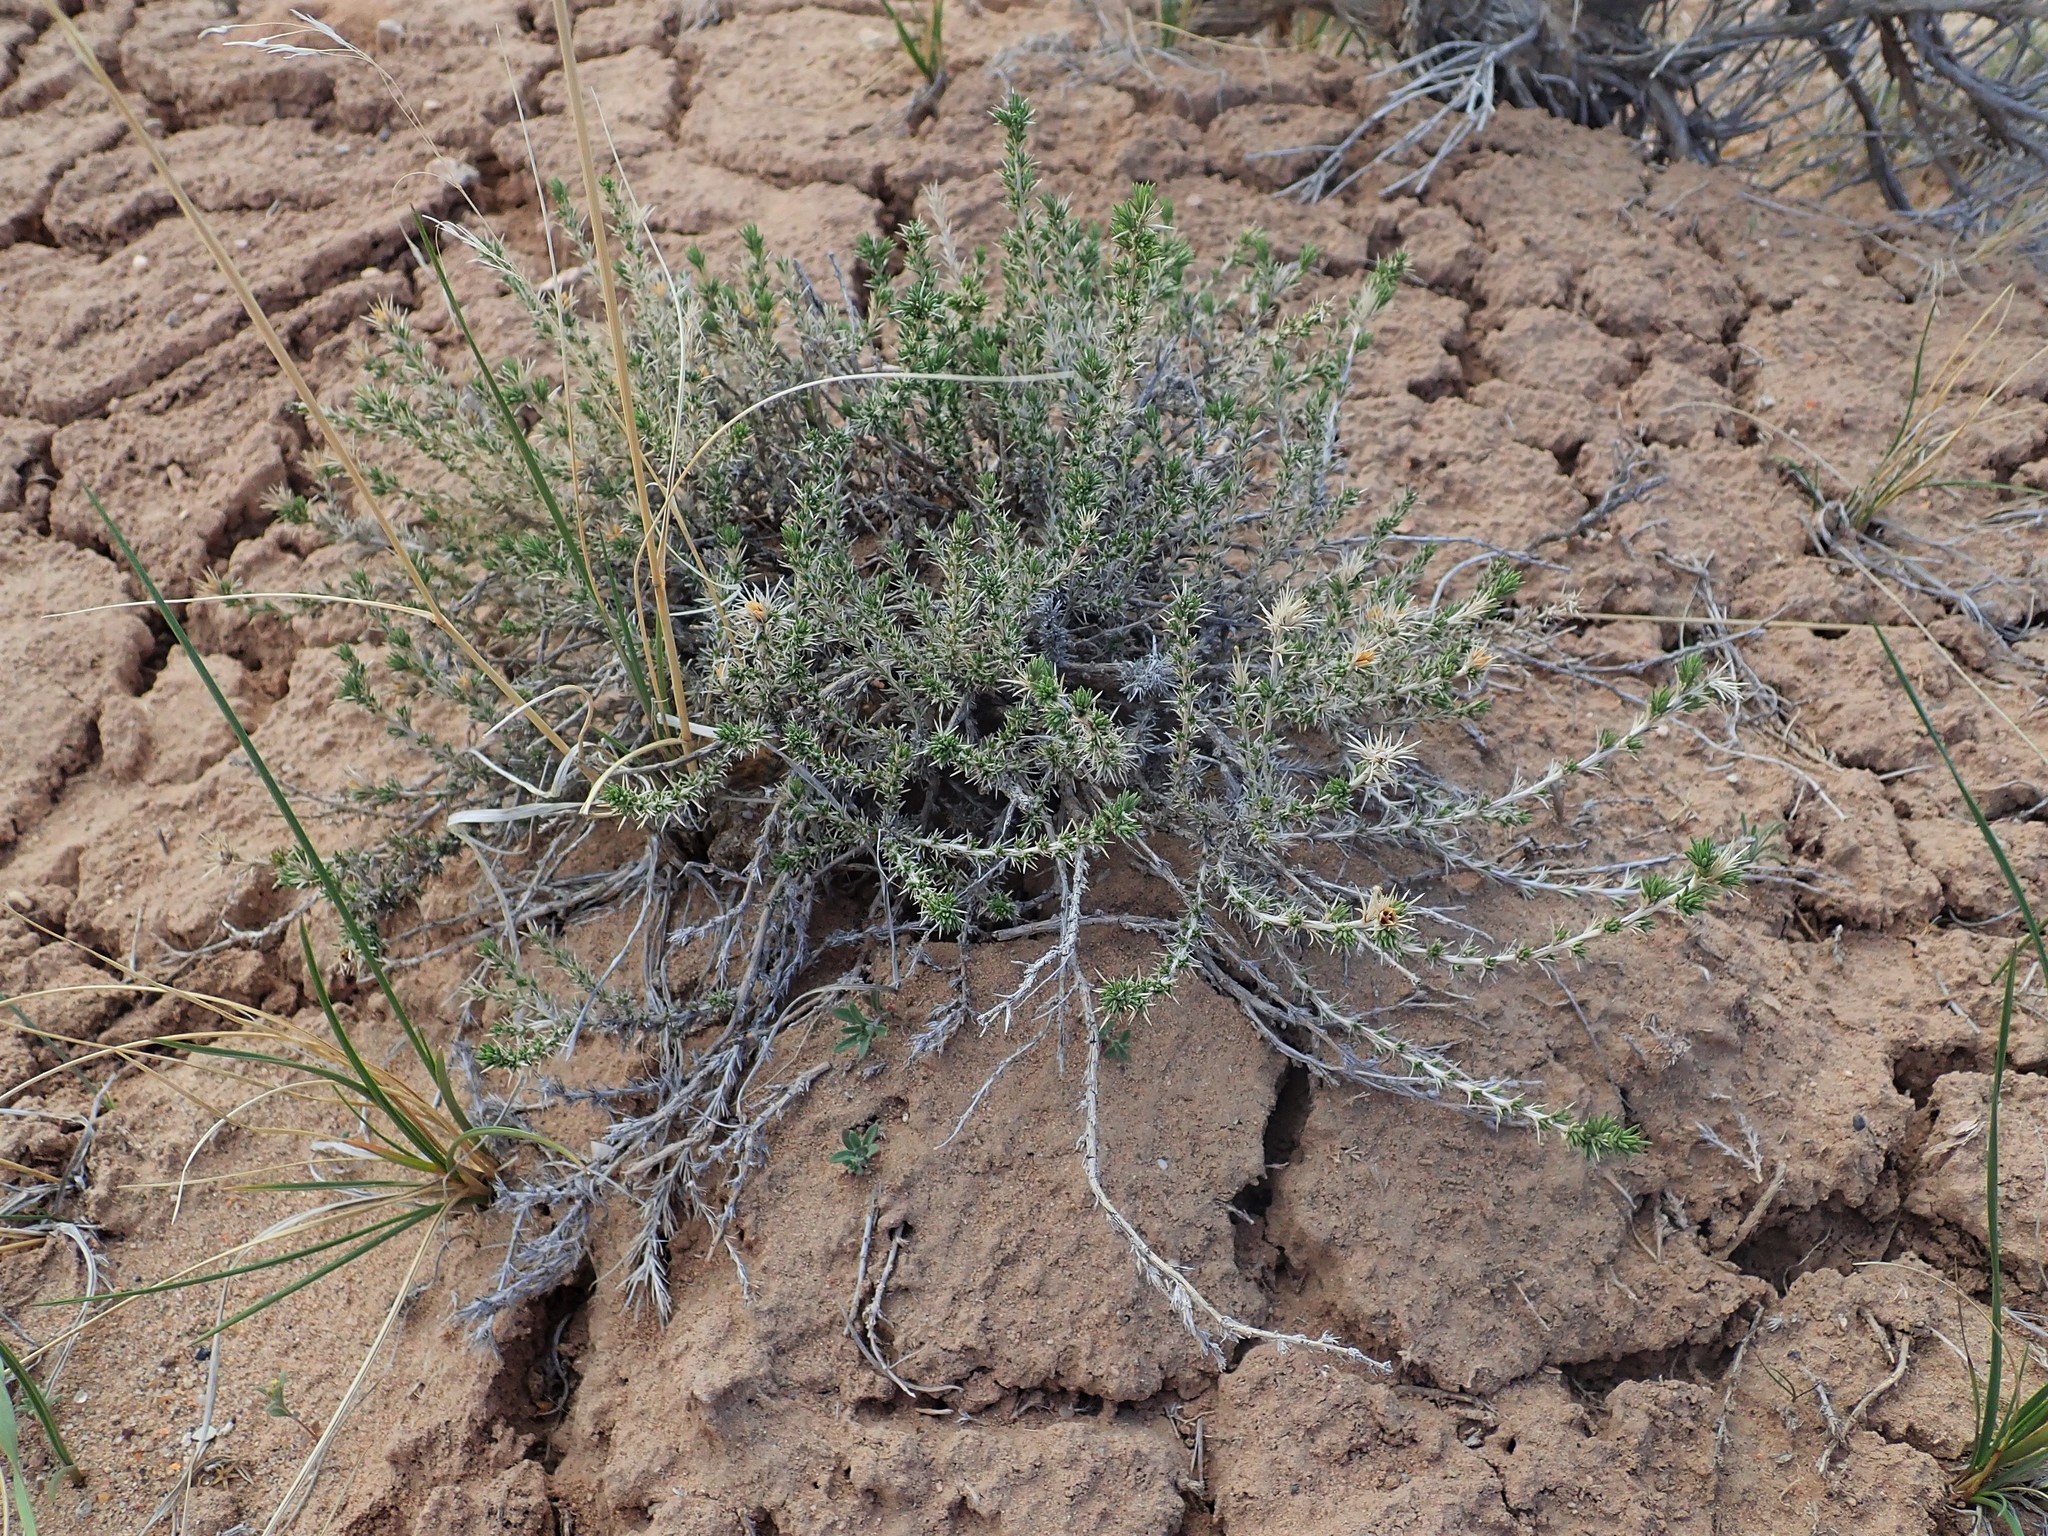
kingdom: Plantae
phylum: Tracheophyta
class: Magnoliopsida
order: Ericales
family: Polemoniaceae
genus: Linanthus
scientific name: Linanthus pungens
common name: Granite prickly phlox
